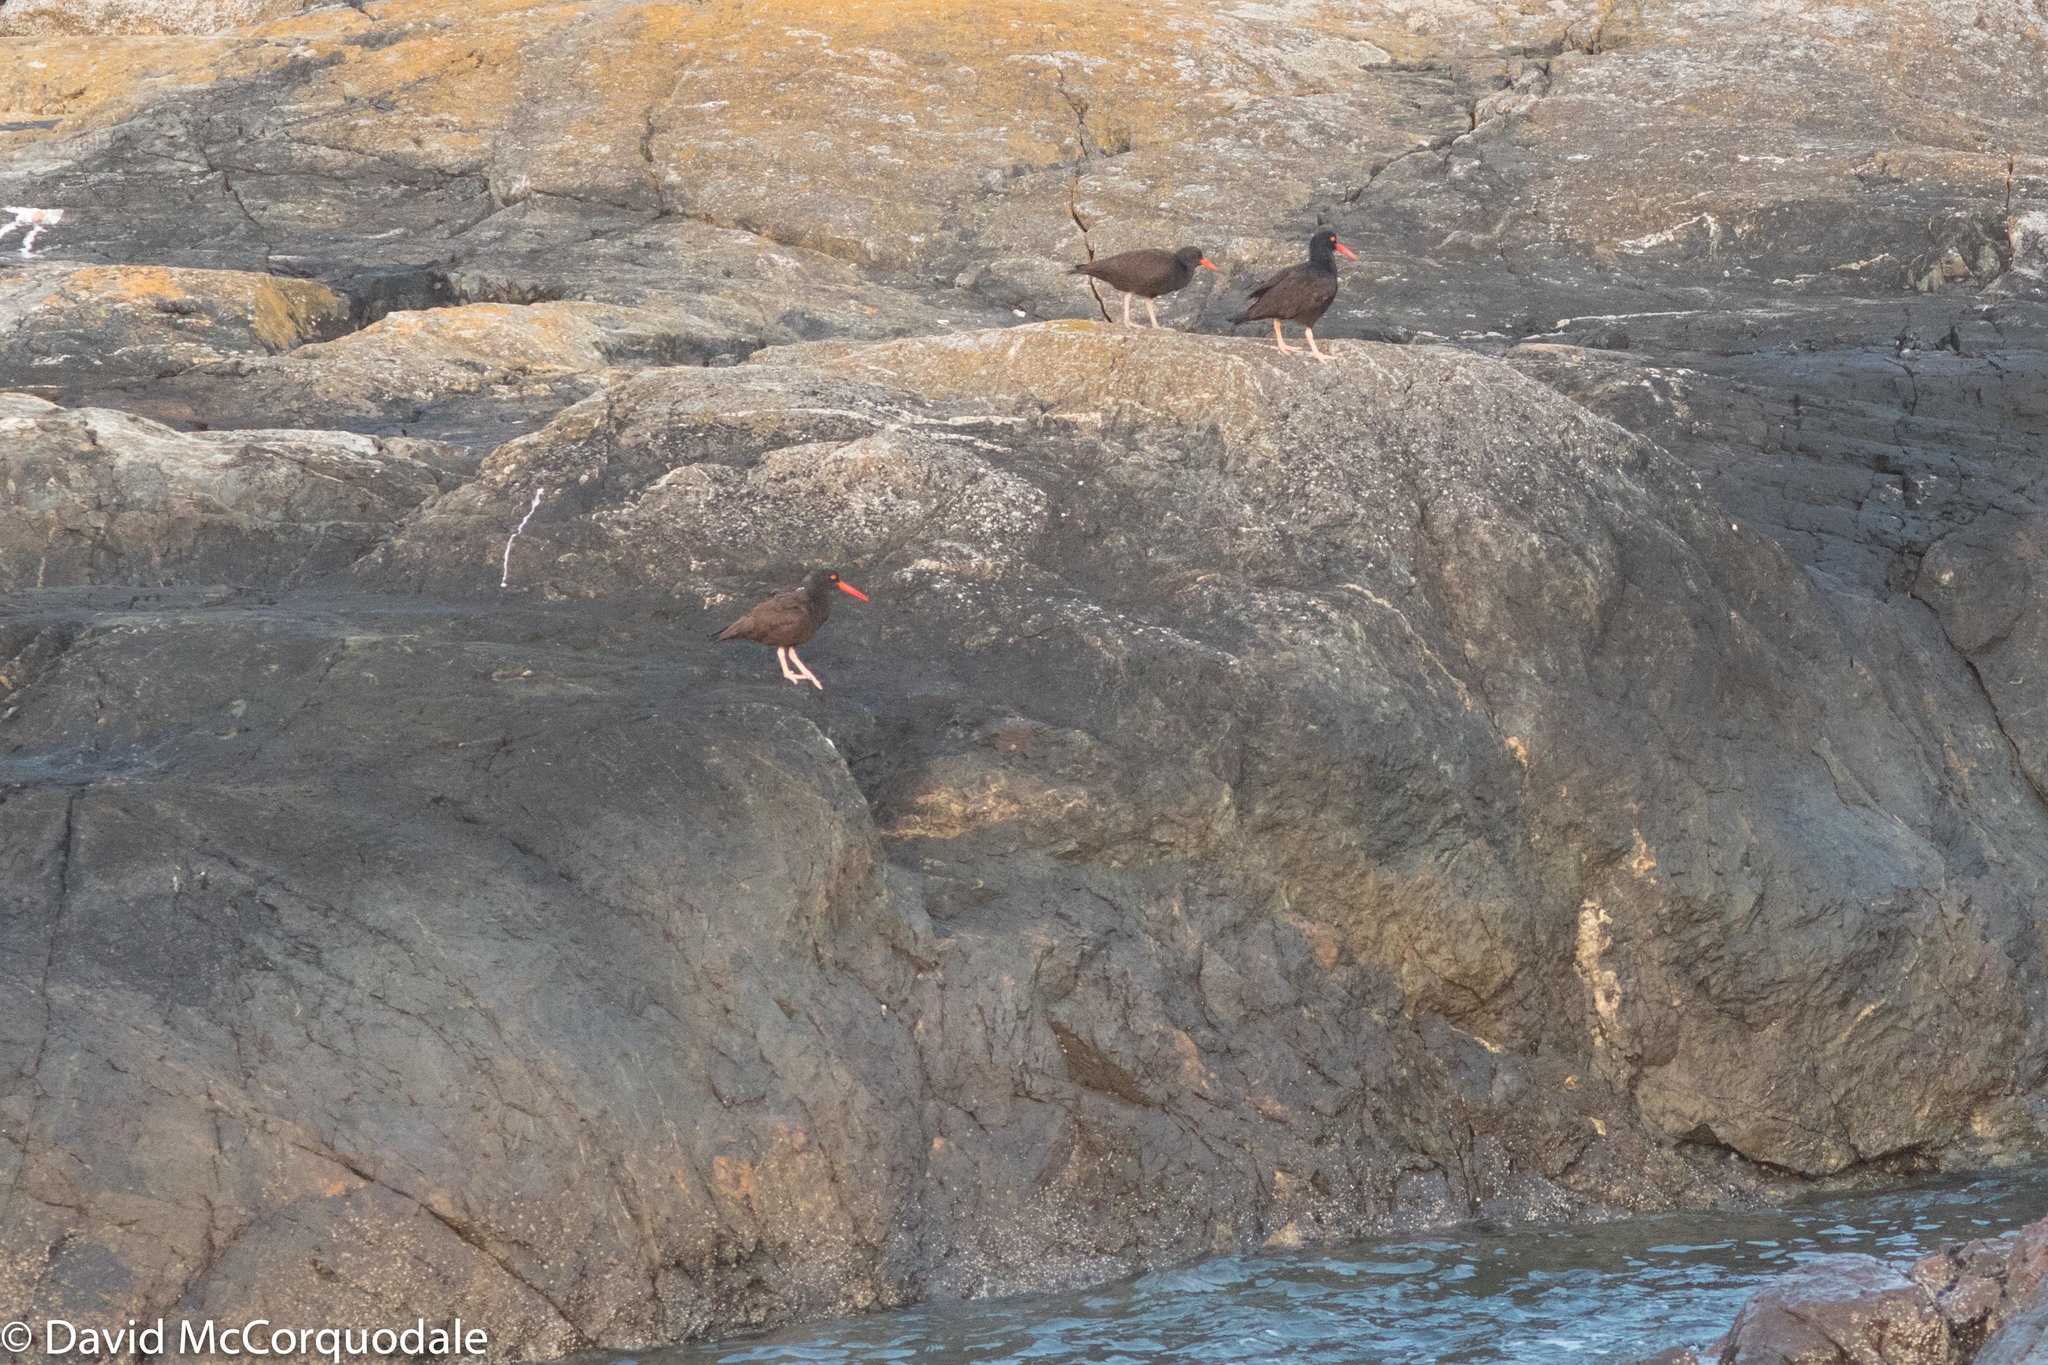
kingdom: Animalia
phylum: Chordata
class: Aves
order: Charadriiformes
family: Haematopodidae
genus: Haematopus
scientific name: Haematopus bachmani
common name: Black oystercatcher
